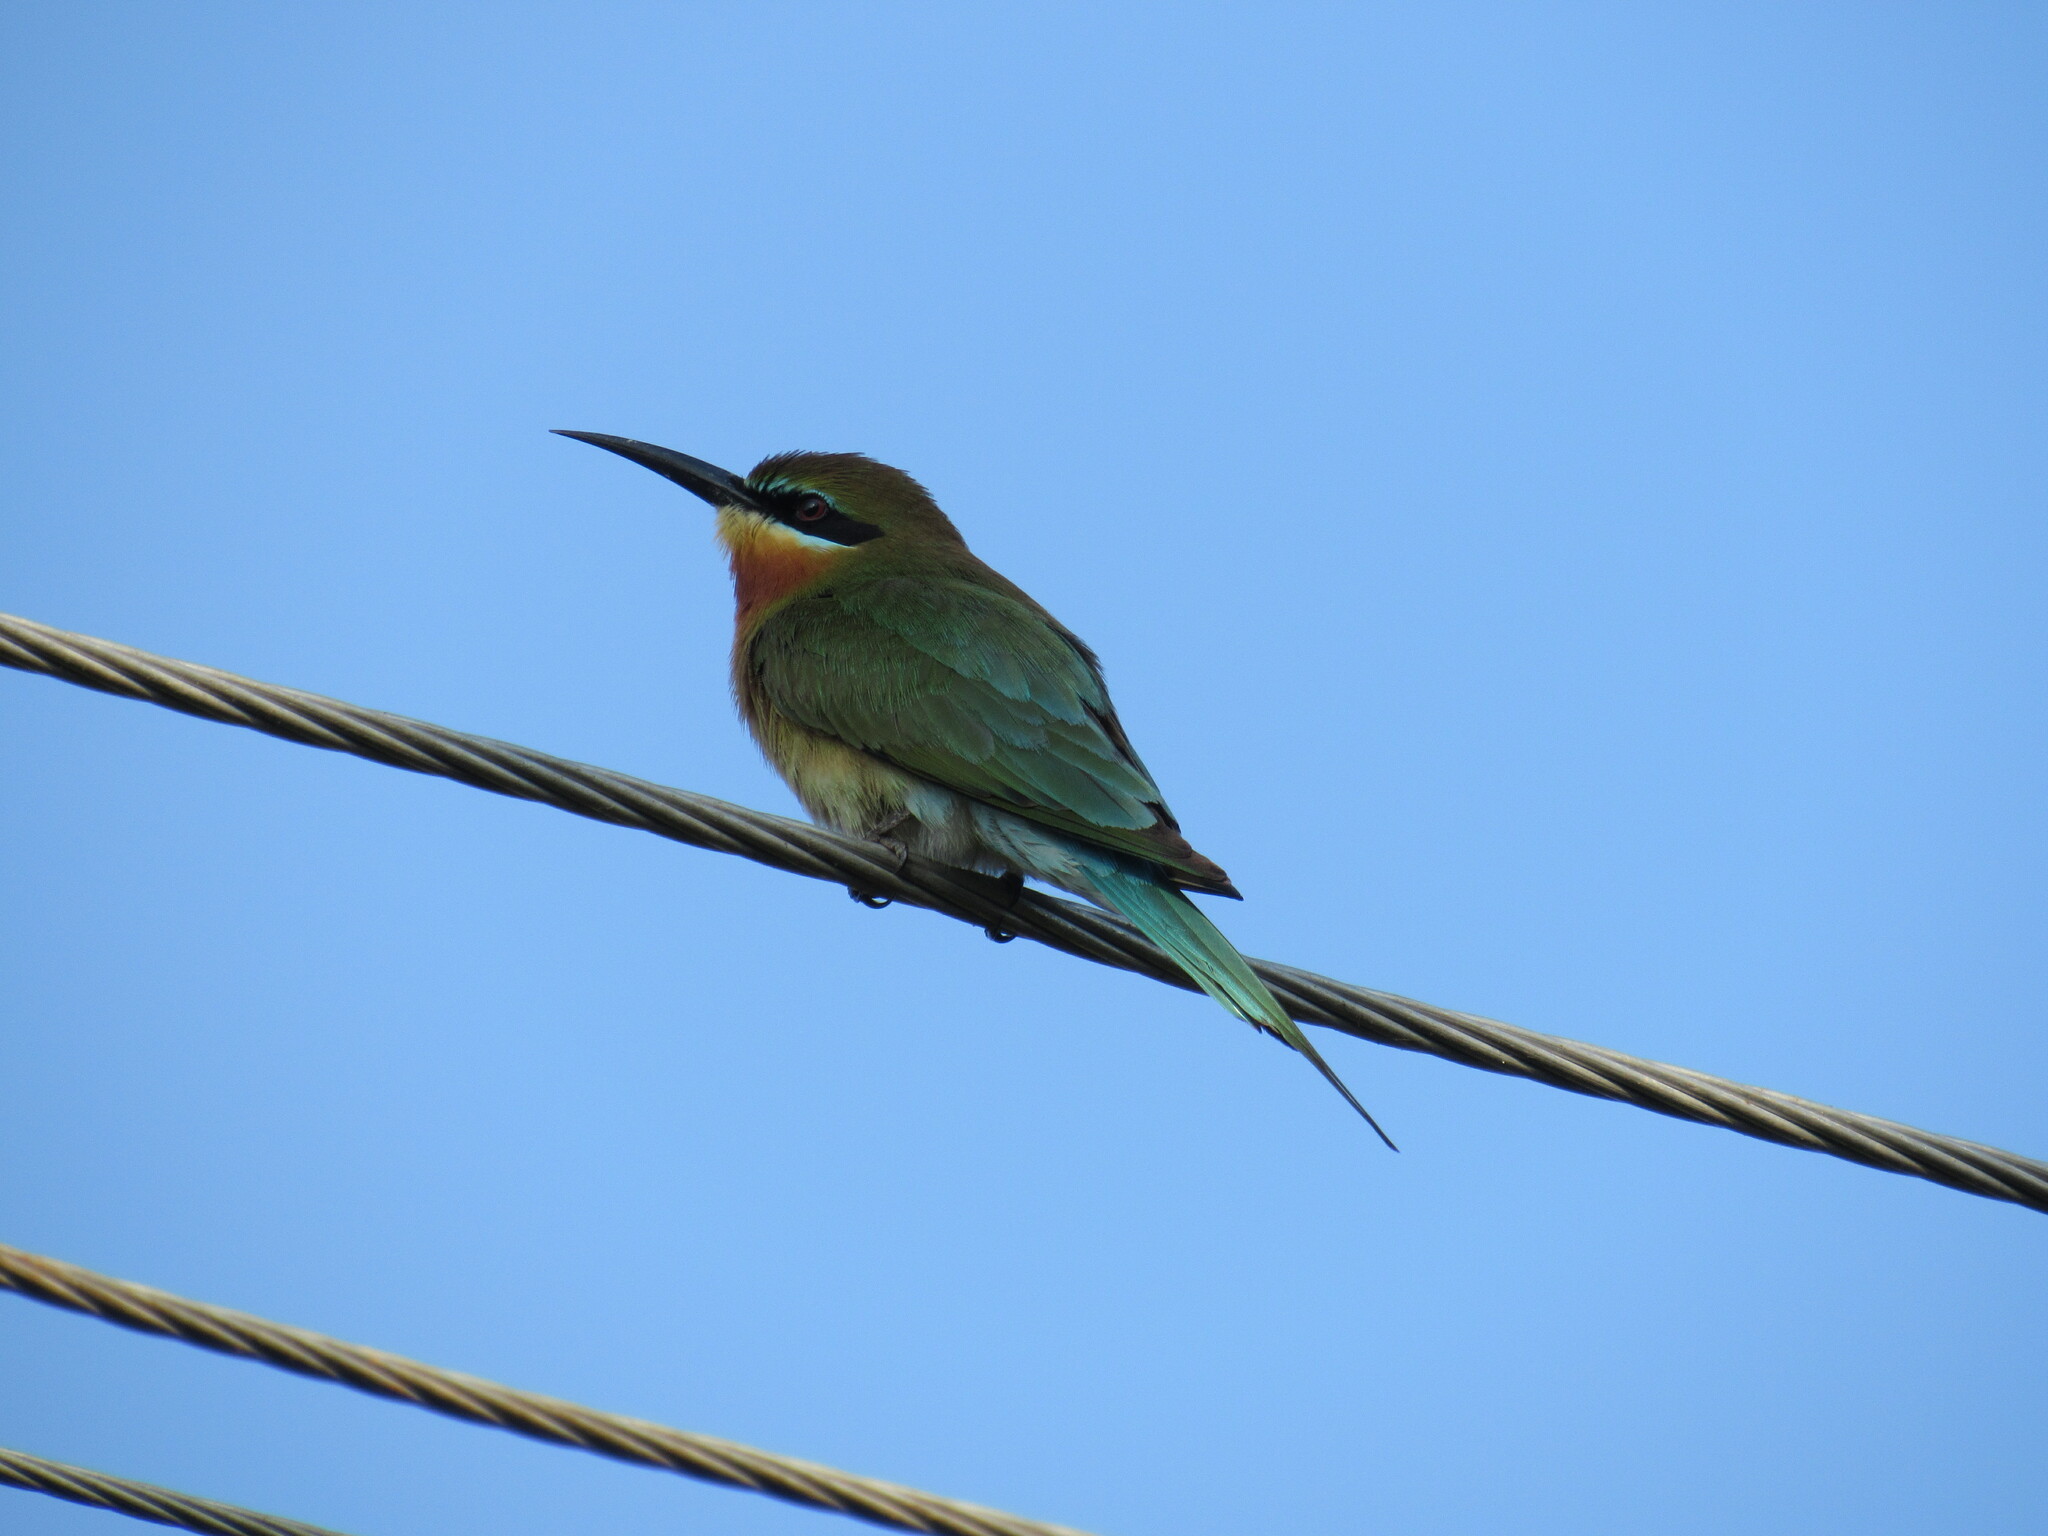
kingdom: Animalia
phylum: Chordata
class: Aves
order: Coraciiformes
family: Meropidae
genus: Merops
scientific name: Merops philippinus
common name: Blue-tailed bee-eater
